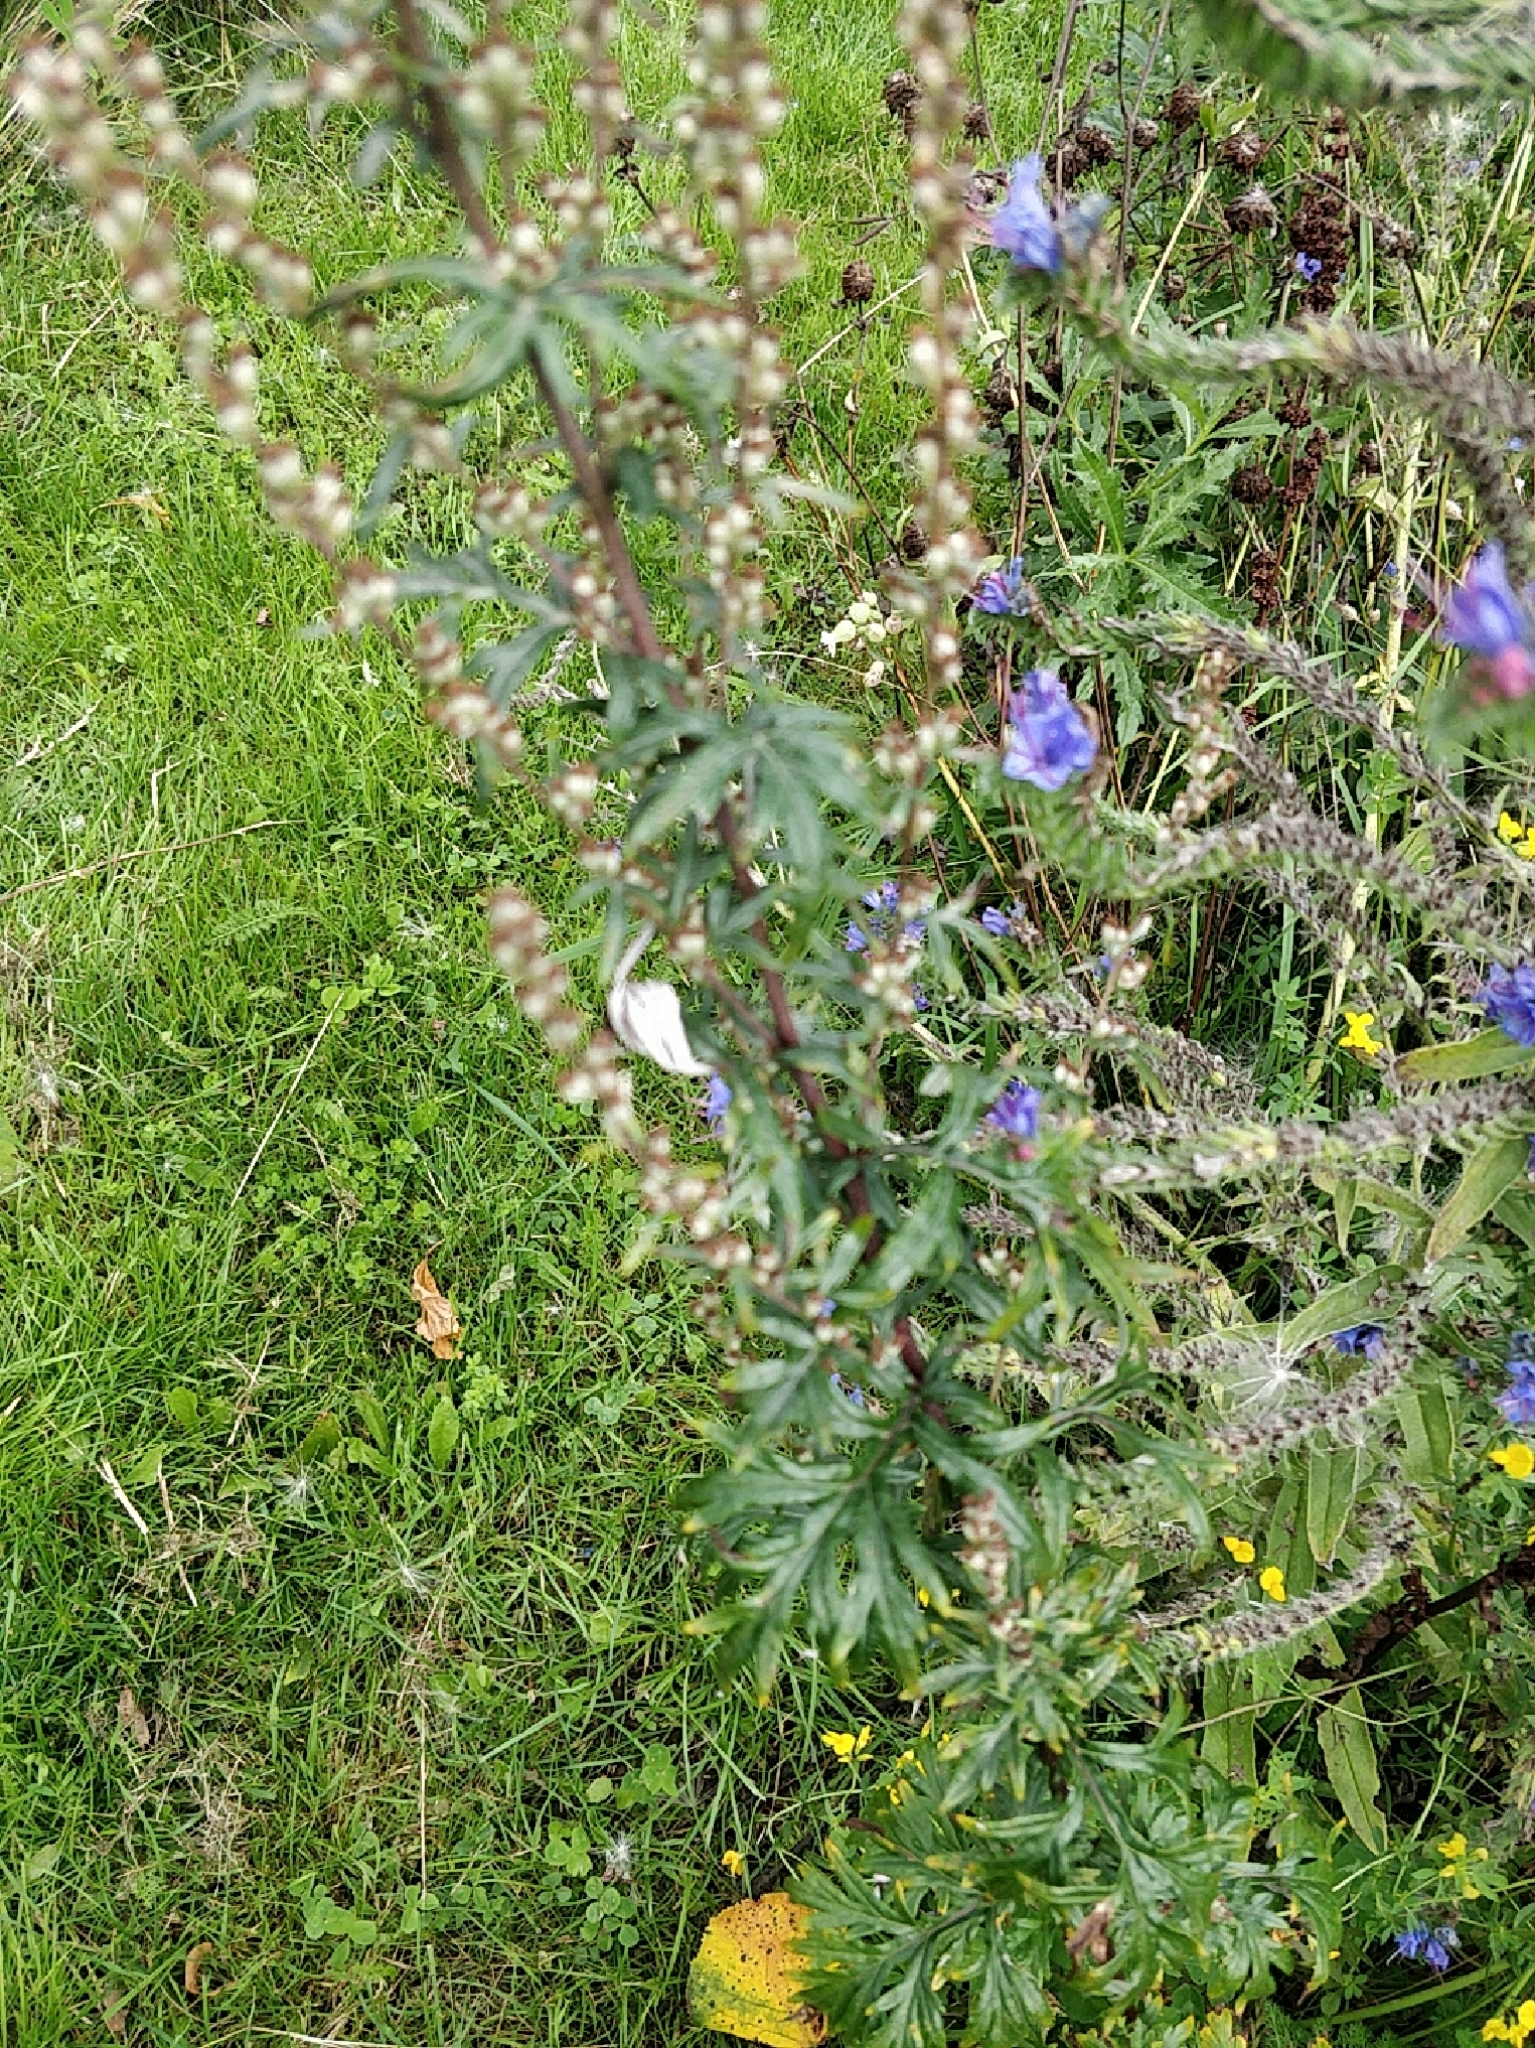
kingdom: Plantae
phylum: Tracheophyta
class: Magnoliopsida
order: Boraginales
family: Boraginaceae
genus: Echium
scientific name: Echium vulgare
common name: Common viper's bugloss
